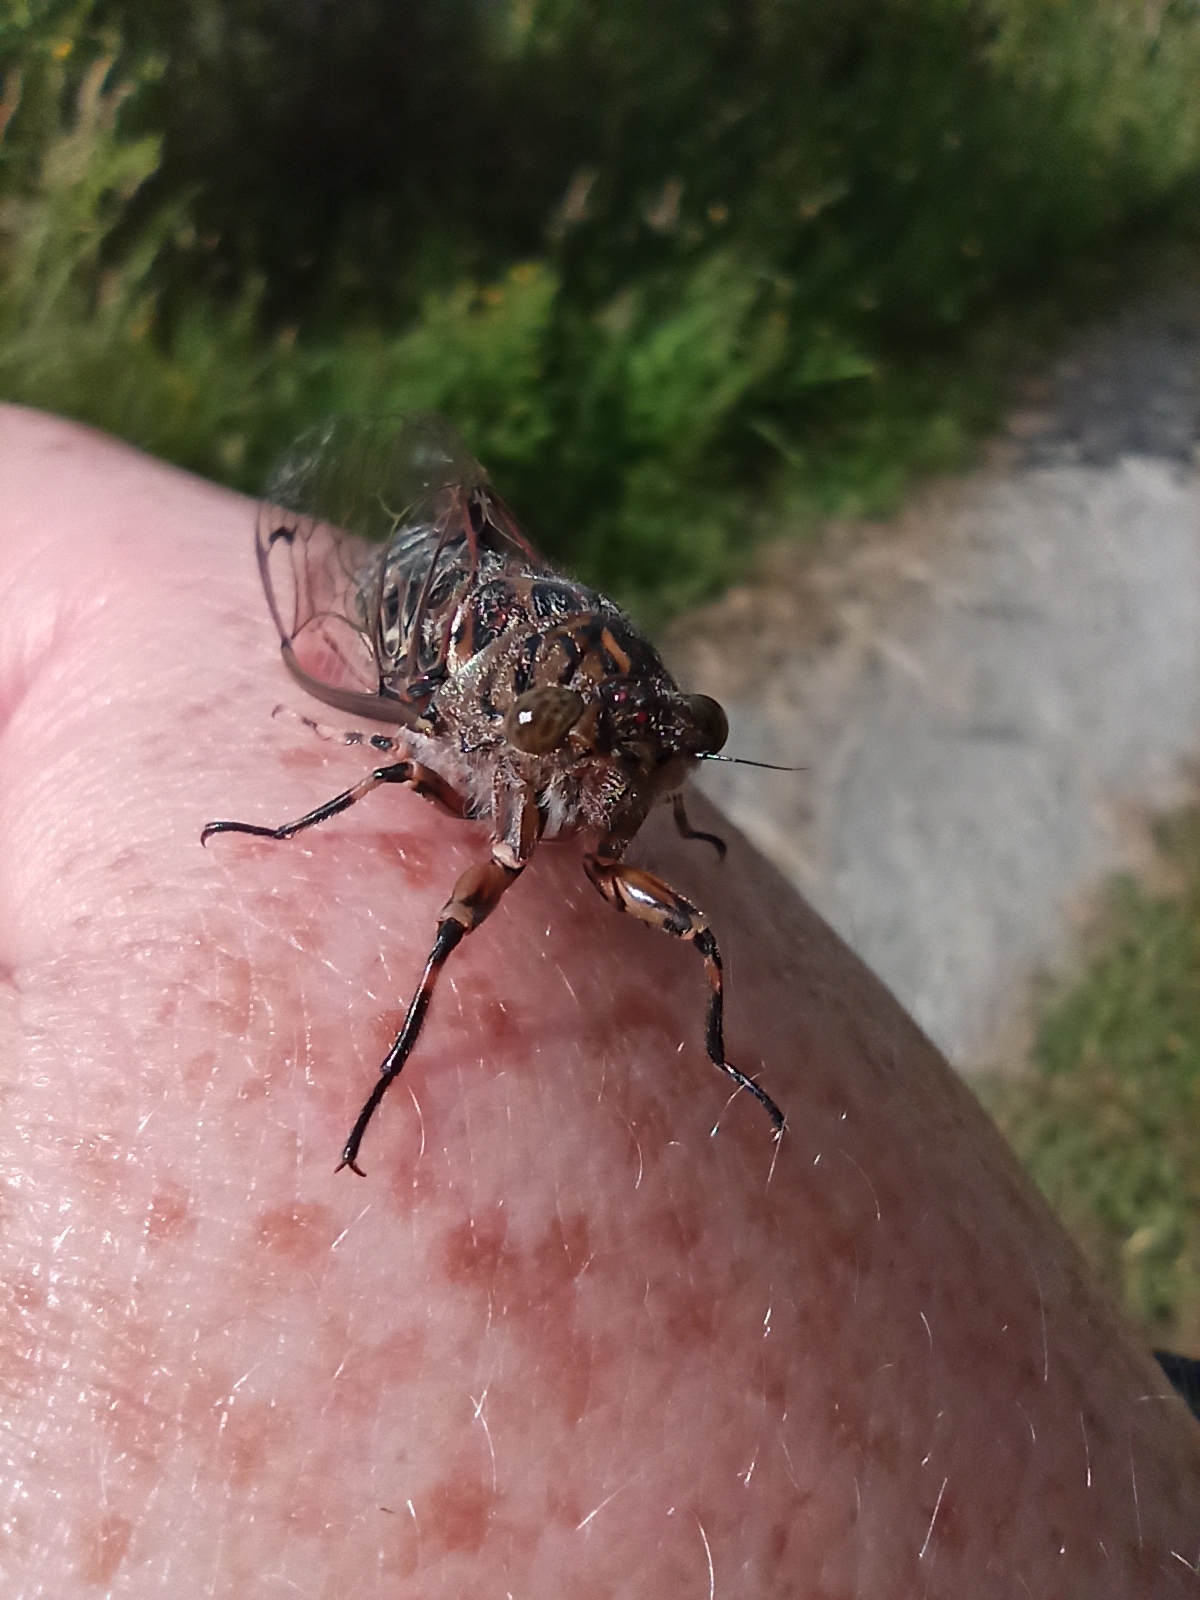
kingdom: Animalia
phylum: Arthropoda
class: Insecta
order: Hemiptera
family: Cicadidae
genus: Amphipsalta
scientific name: Amphipsalta cingulata
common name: Clapping cicada
